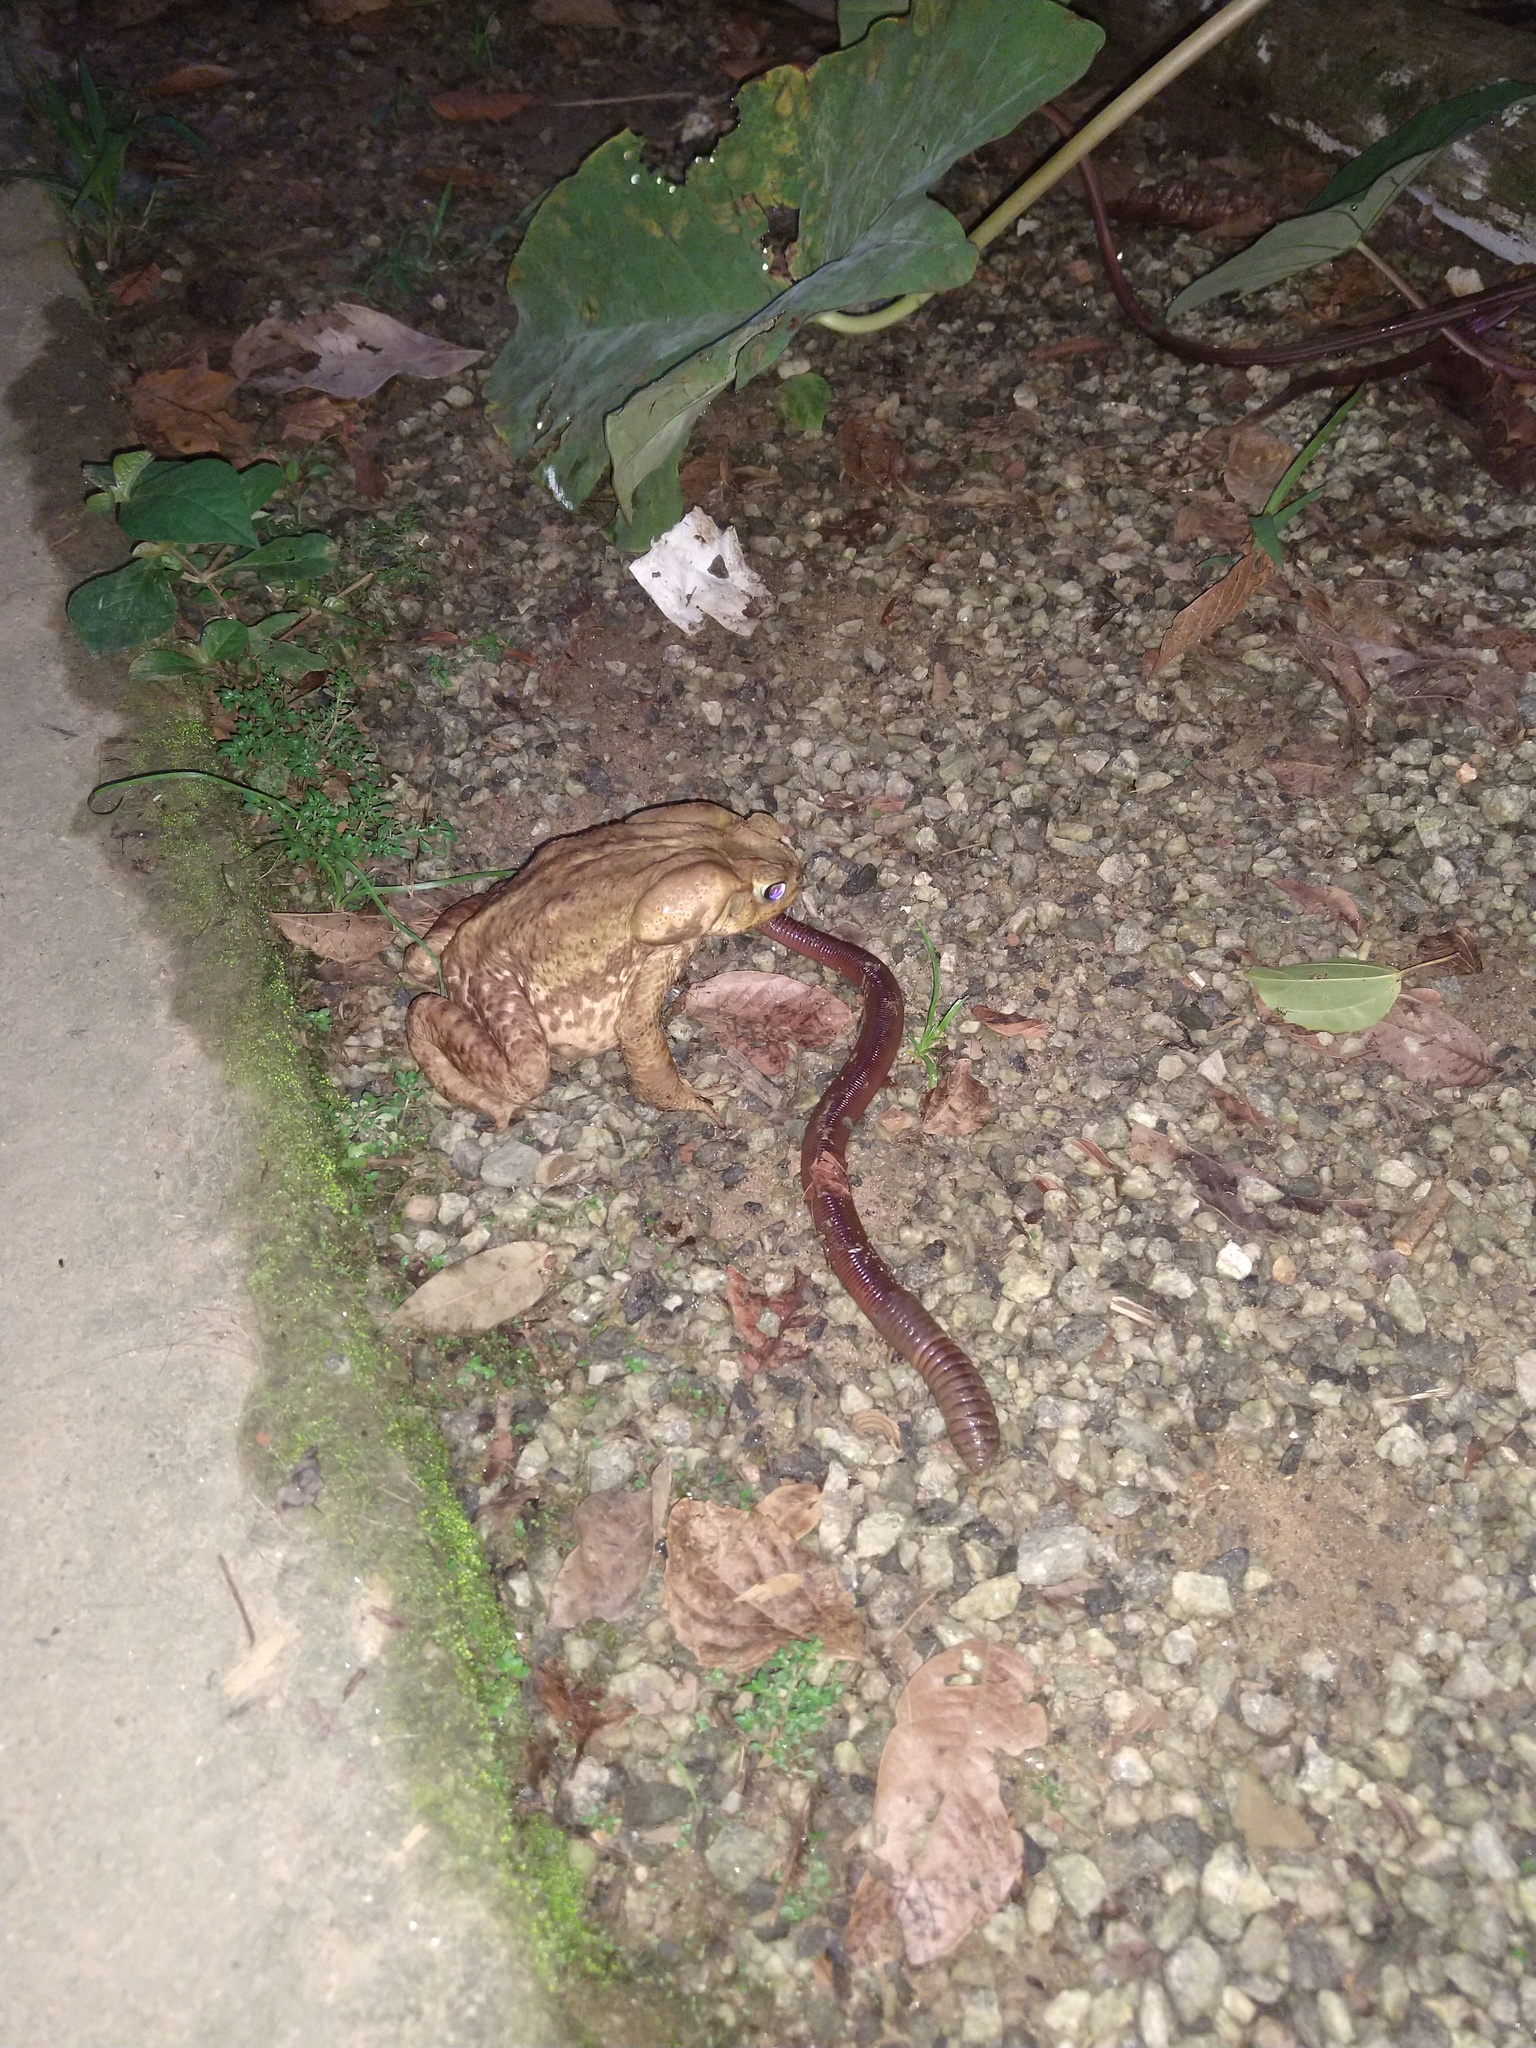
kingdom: Animalia
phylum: Chordata
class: Amphibia
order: Anura
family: Bufonidae
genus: Rhinella
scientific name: Rhinella icterica
